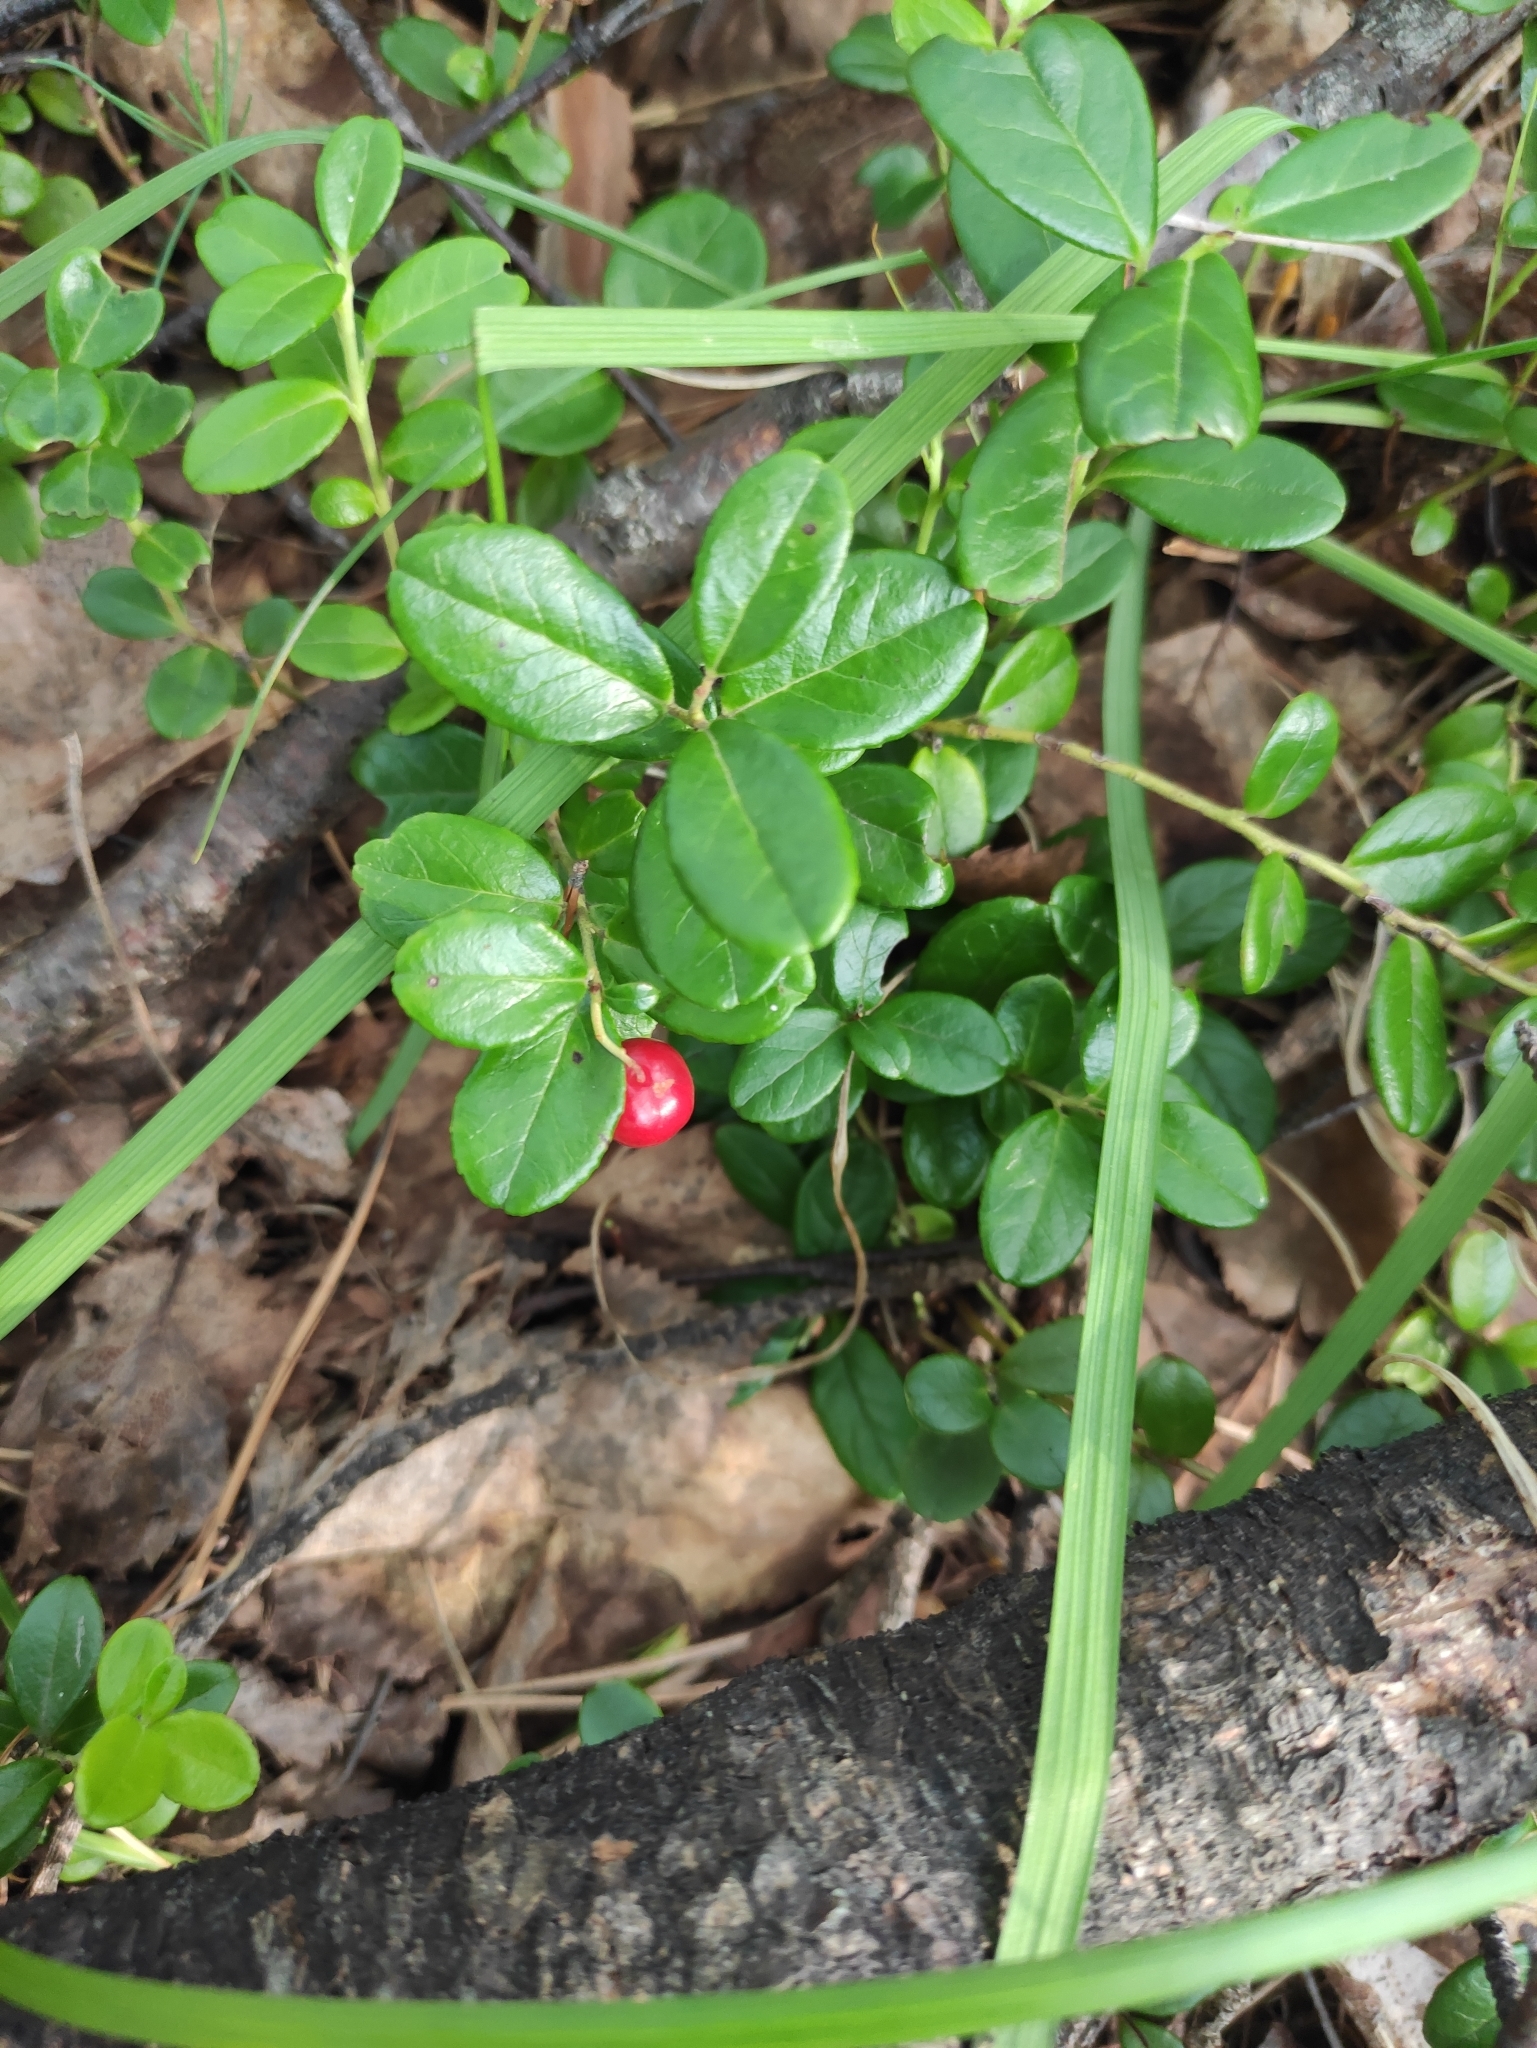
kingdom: Plantae
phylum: Tracheophyta
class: Magnoliopsida
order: Ericales
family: Ericaceae
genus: Vaccinium
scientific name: Vaccinium vitis-idaea
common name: Cowberry
